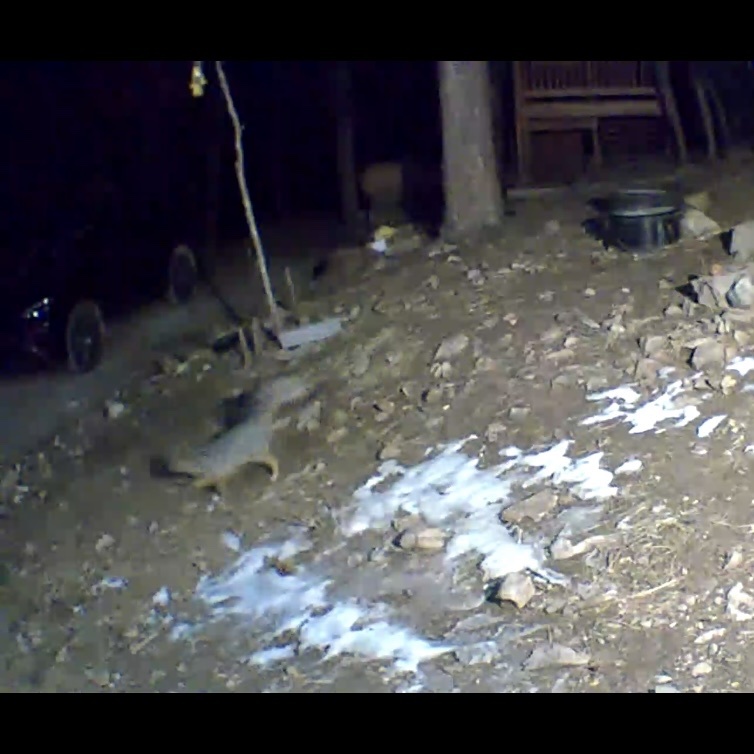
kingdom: Animalia
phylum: Chordata
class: Mammalia
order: Carnivora
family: Canidae
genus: Urocyon
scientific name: Urocyon cinereoargenteus
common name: Gray fox
